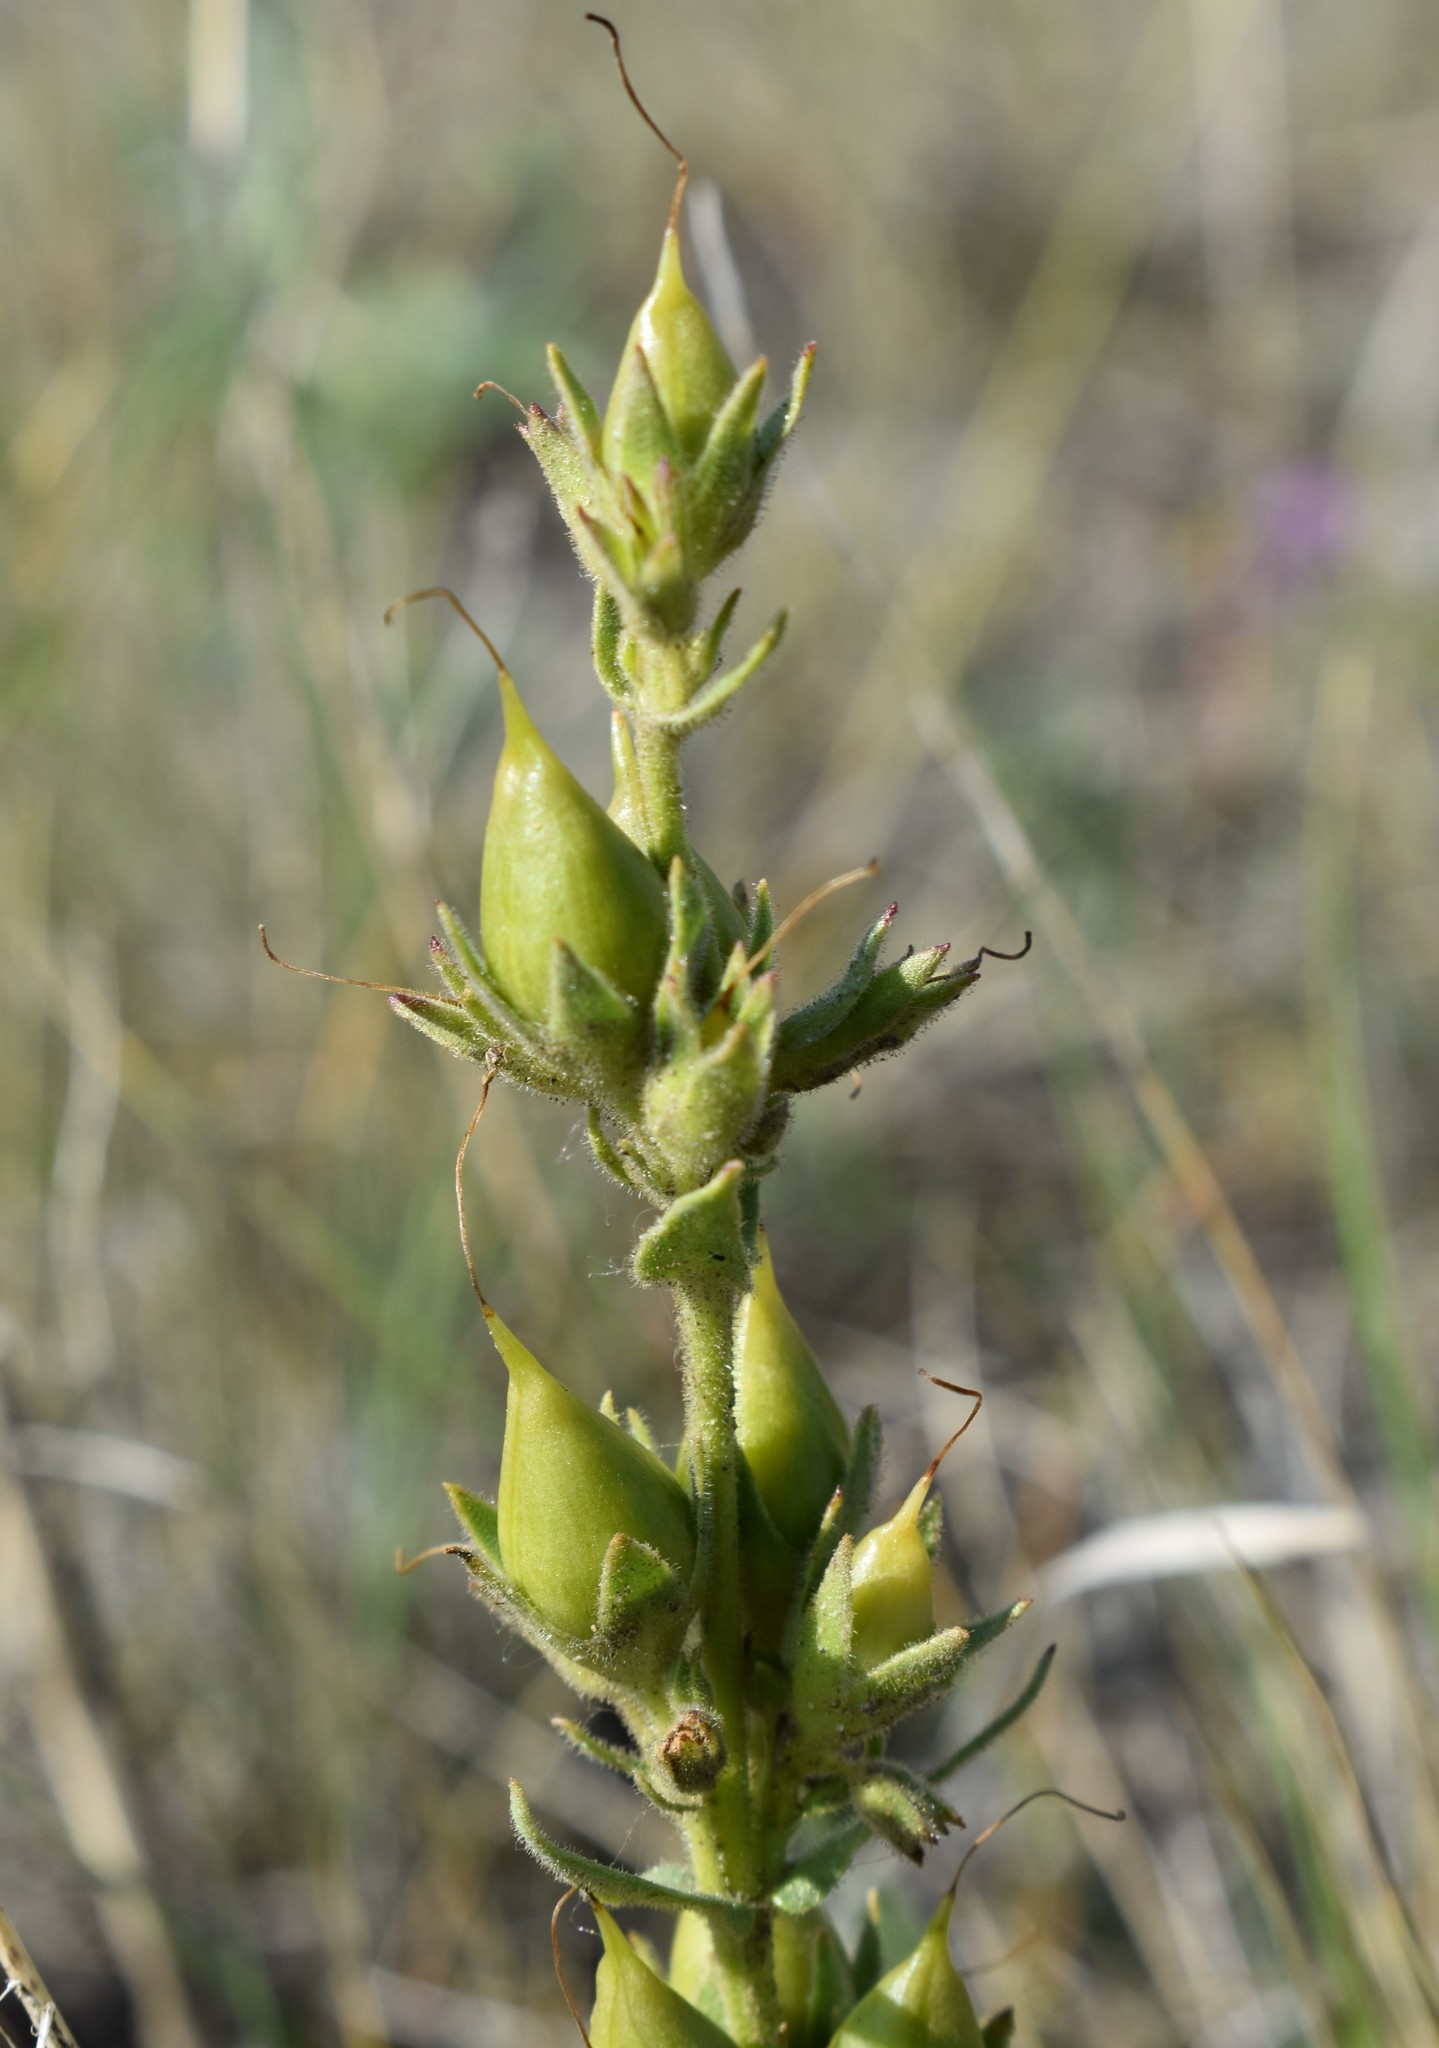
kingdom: Plantae
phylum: Tracheophyta
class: Magnoliopsida
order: Lamiales
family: Plantaginaceae
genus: Penstemon
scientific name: Penstemon albidus
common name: White beardtongue
